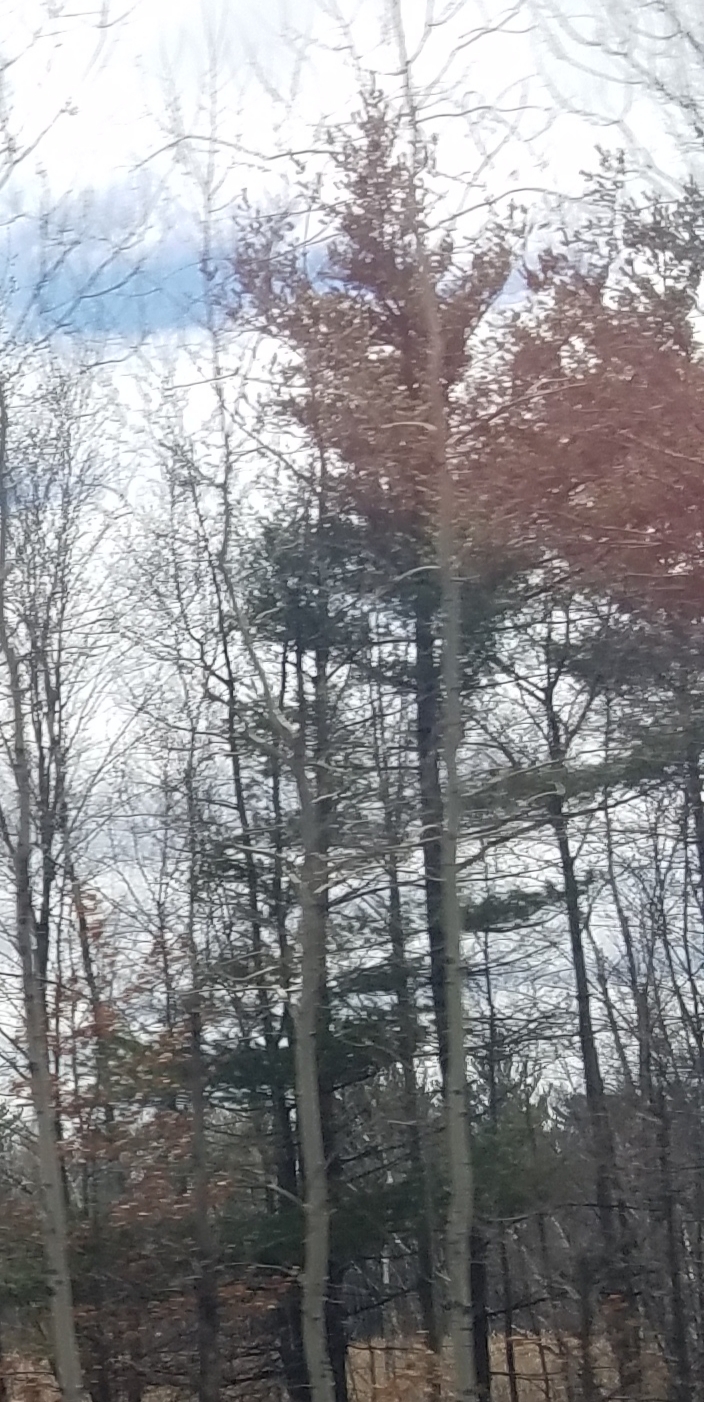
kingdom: Plantae
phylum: Tracheophyta
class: Pinopsida
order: Pinales
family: Pinaceae
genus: Pinus
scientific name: Pinus strobus
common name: Weymouth pine
